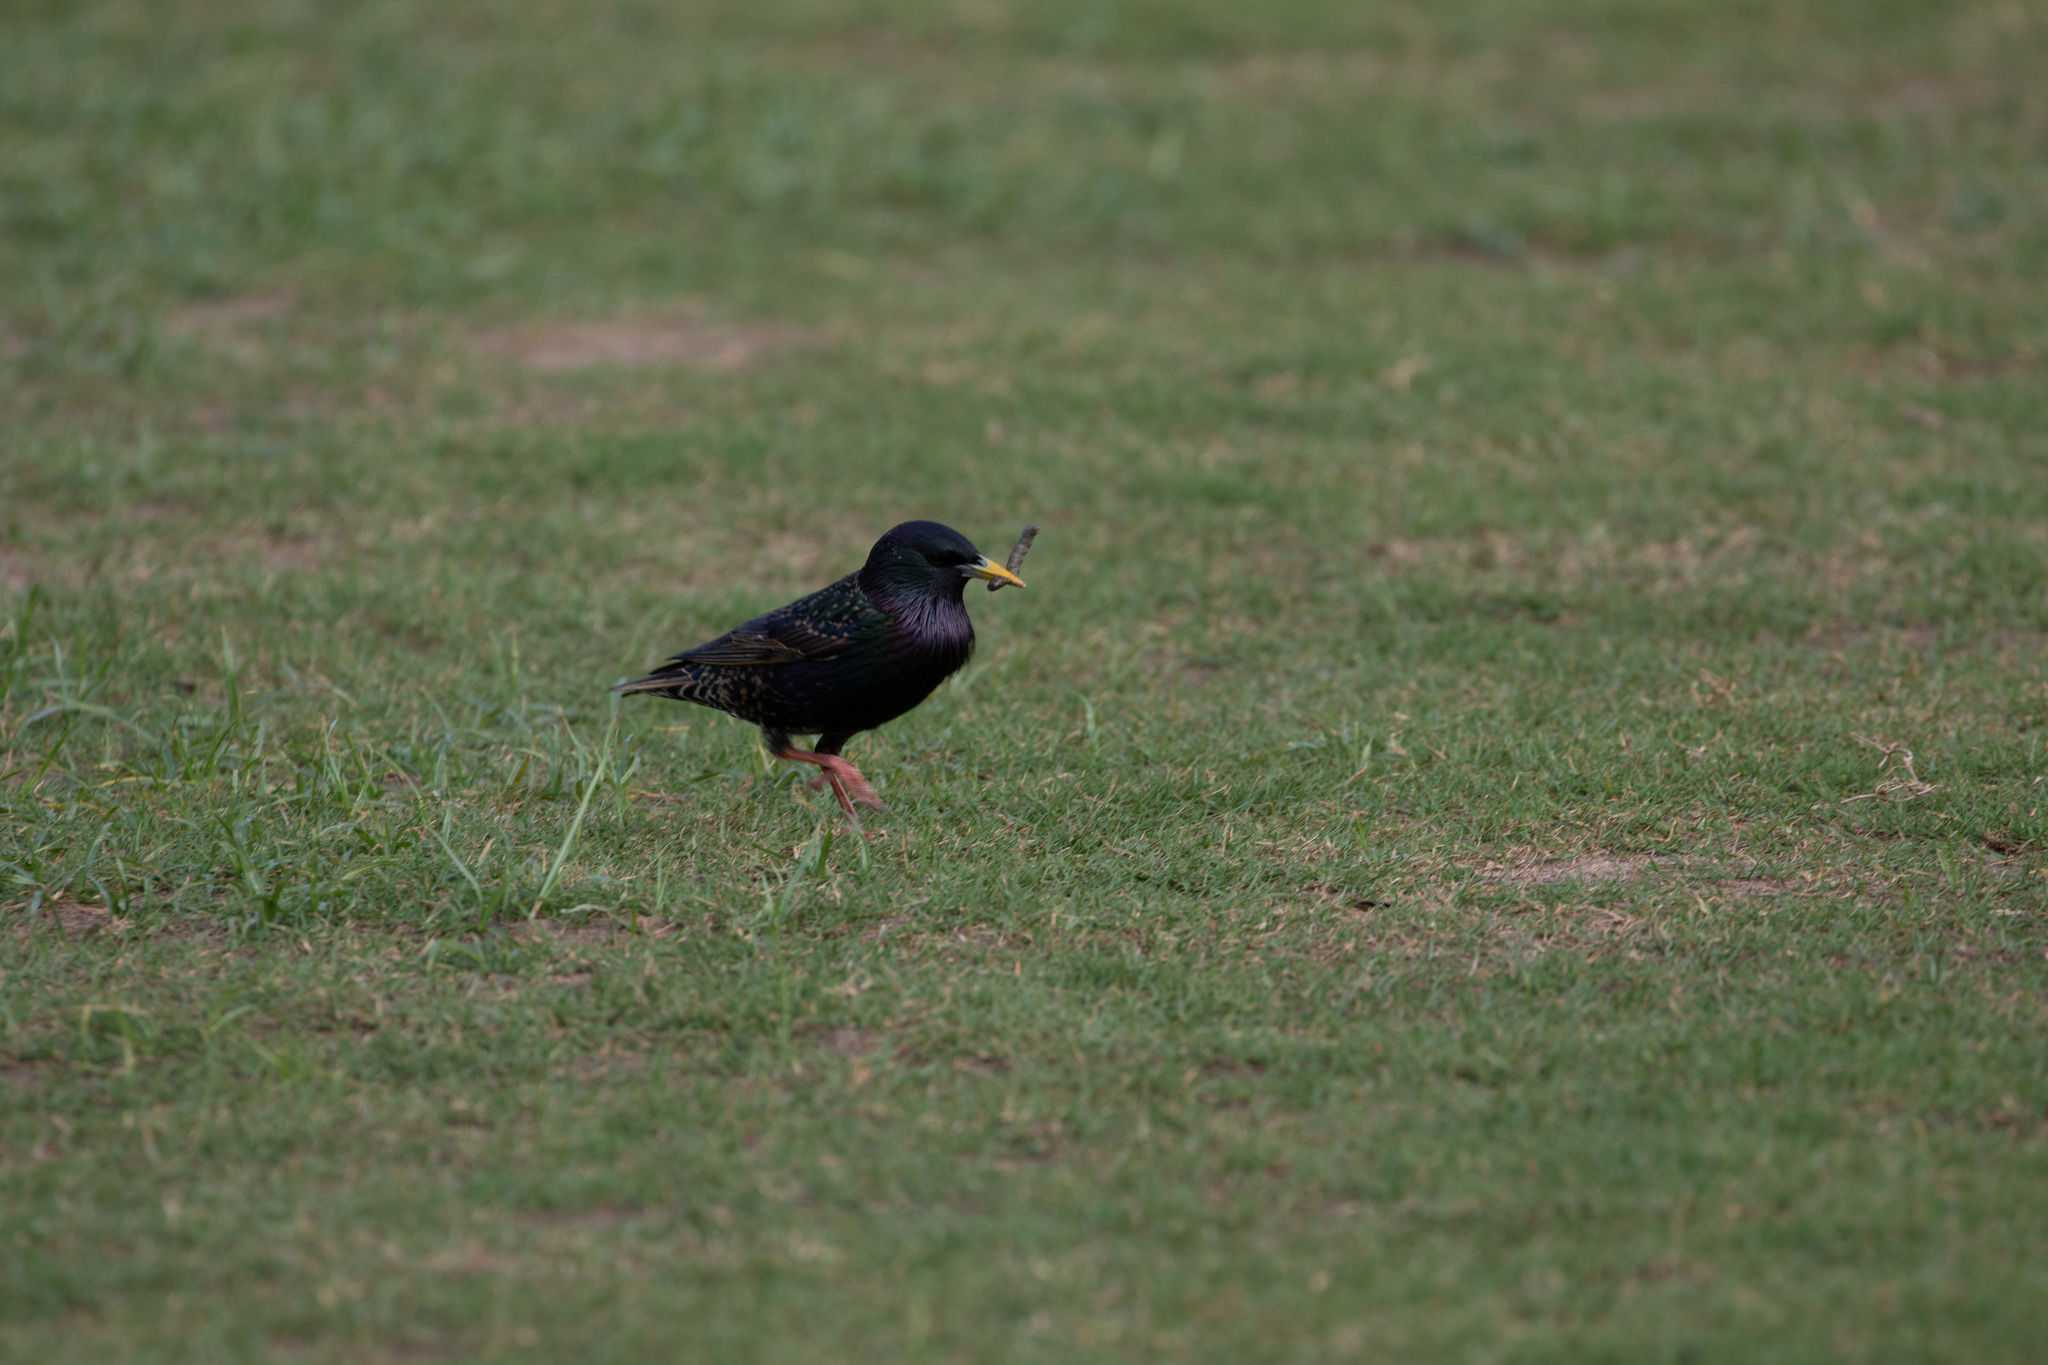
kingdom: Animalia
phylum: Chordata
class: Aves
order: Passeriformes
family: Sturnidae
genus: Sturnus
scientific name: Sturnus vulgaris
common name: Common starling
